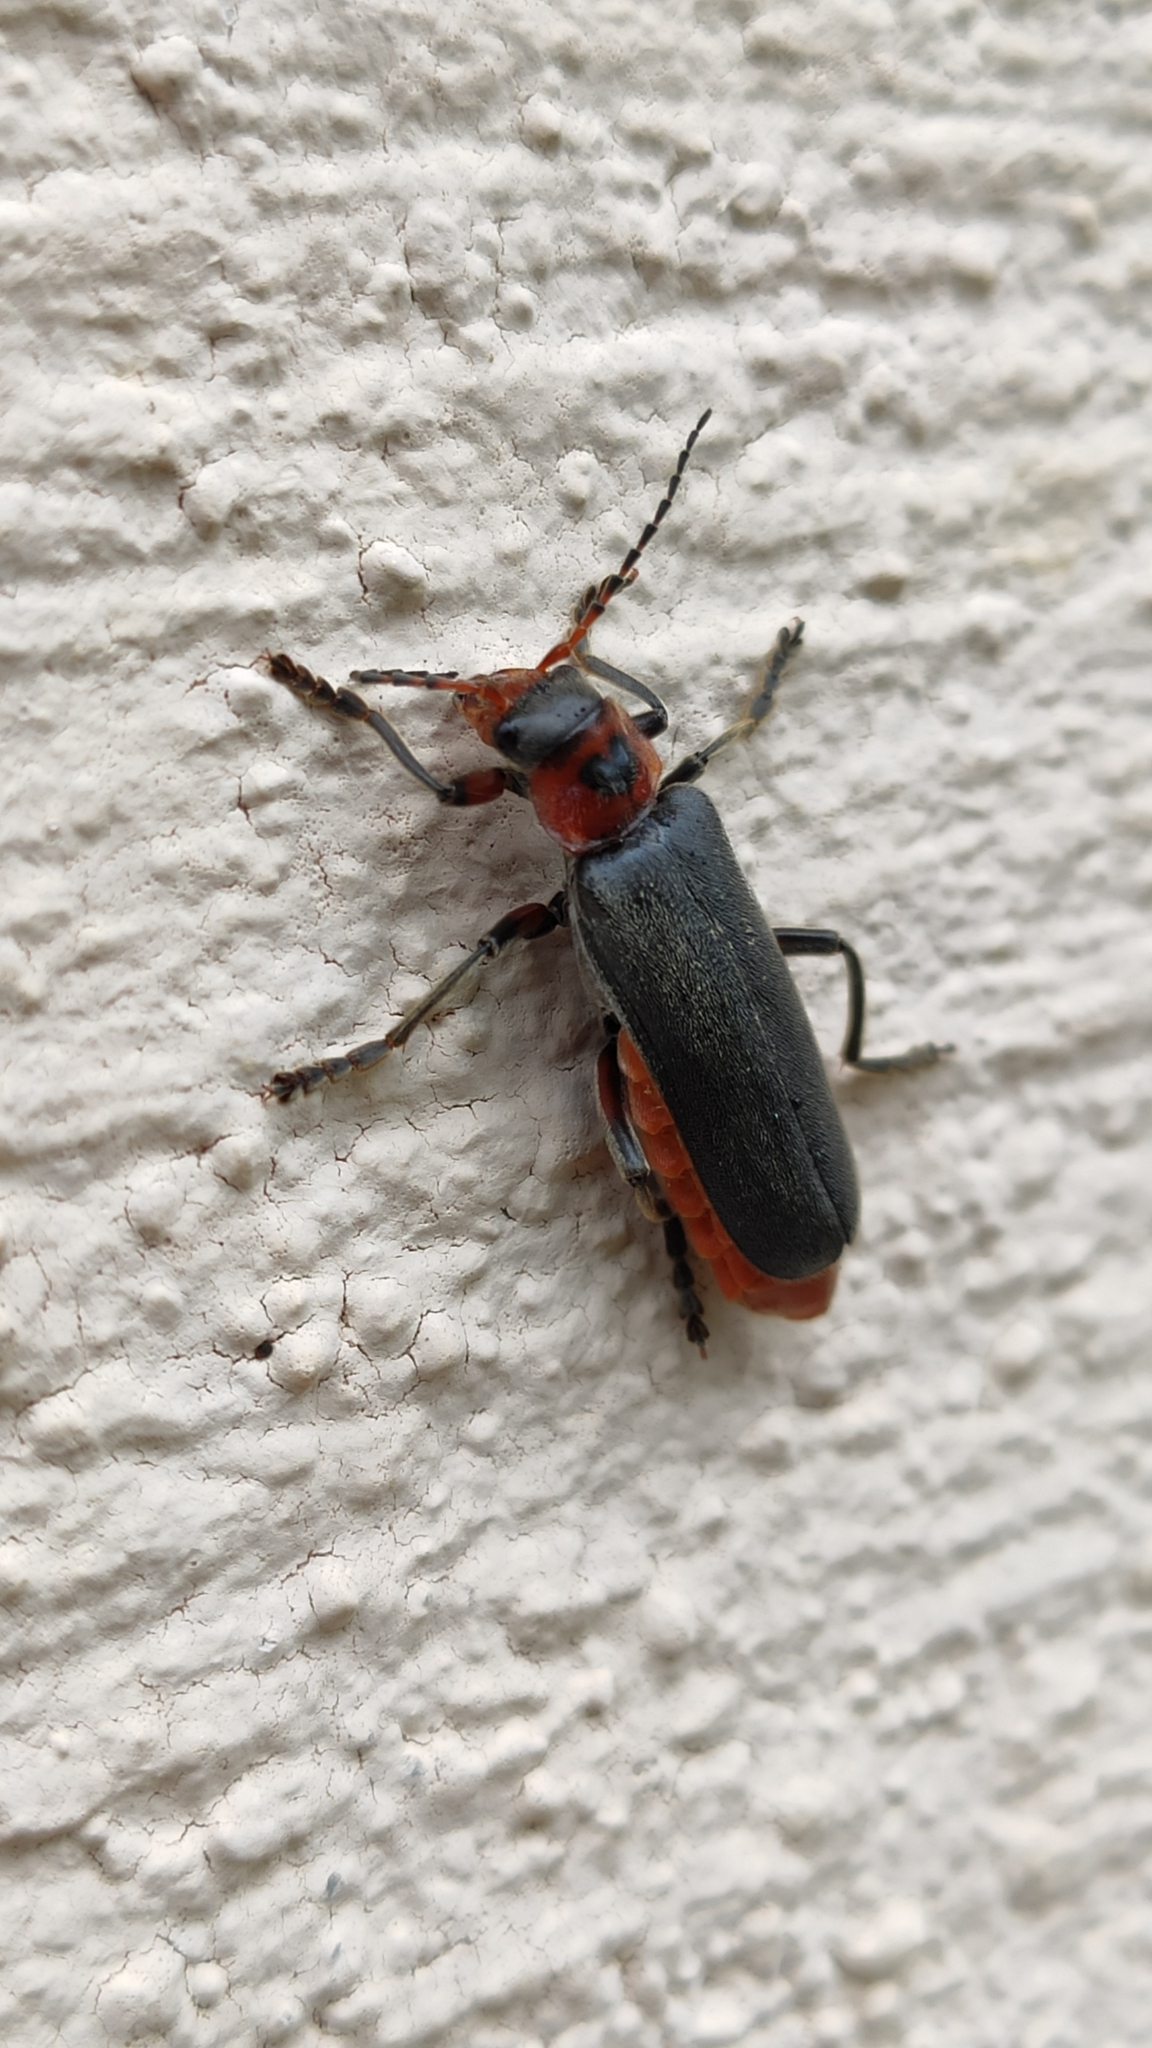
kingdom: Animalia
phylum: Arthropoda
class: Insecta
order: Coleoptera
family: Cantharidae
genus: Cantharis
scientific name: Cantharis rustica
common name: Soldier beetle
